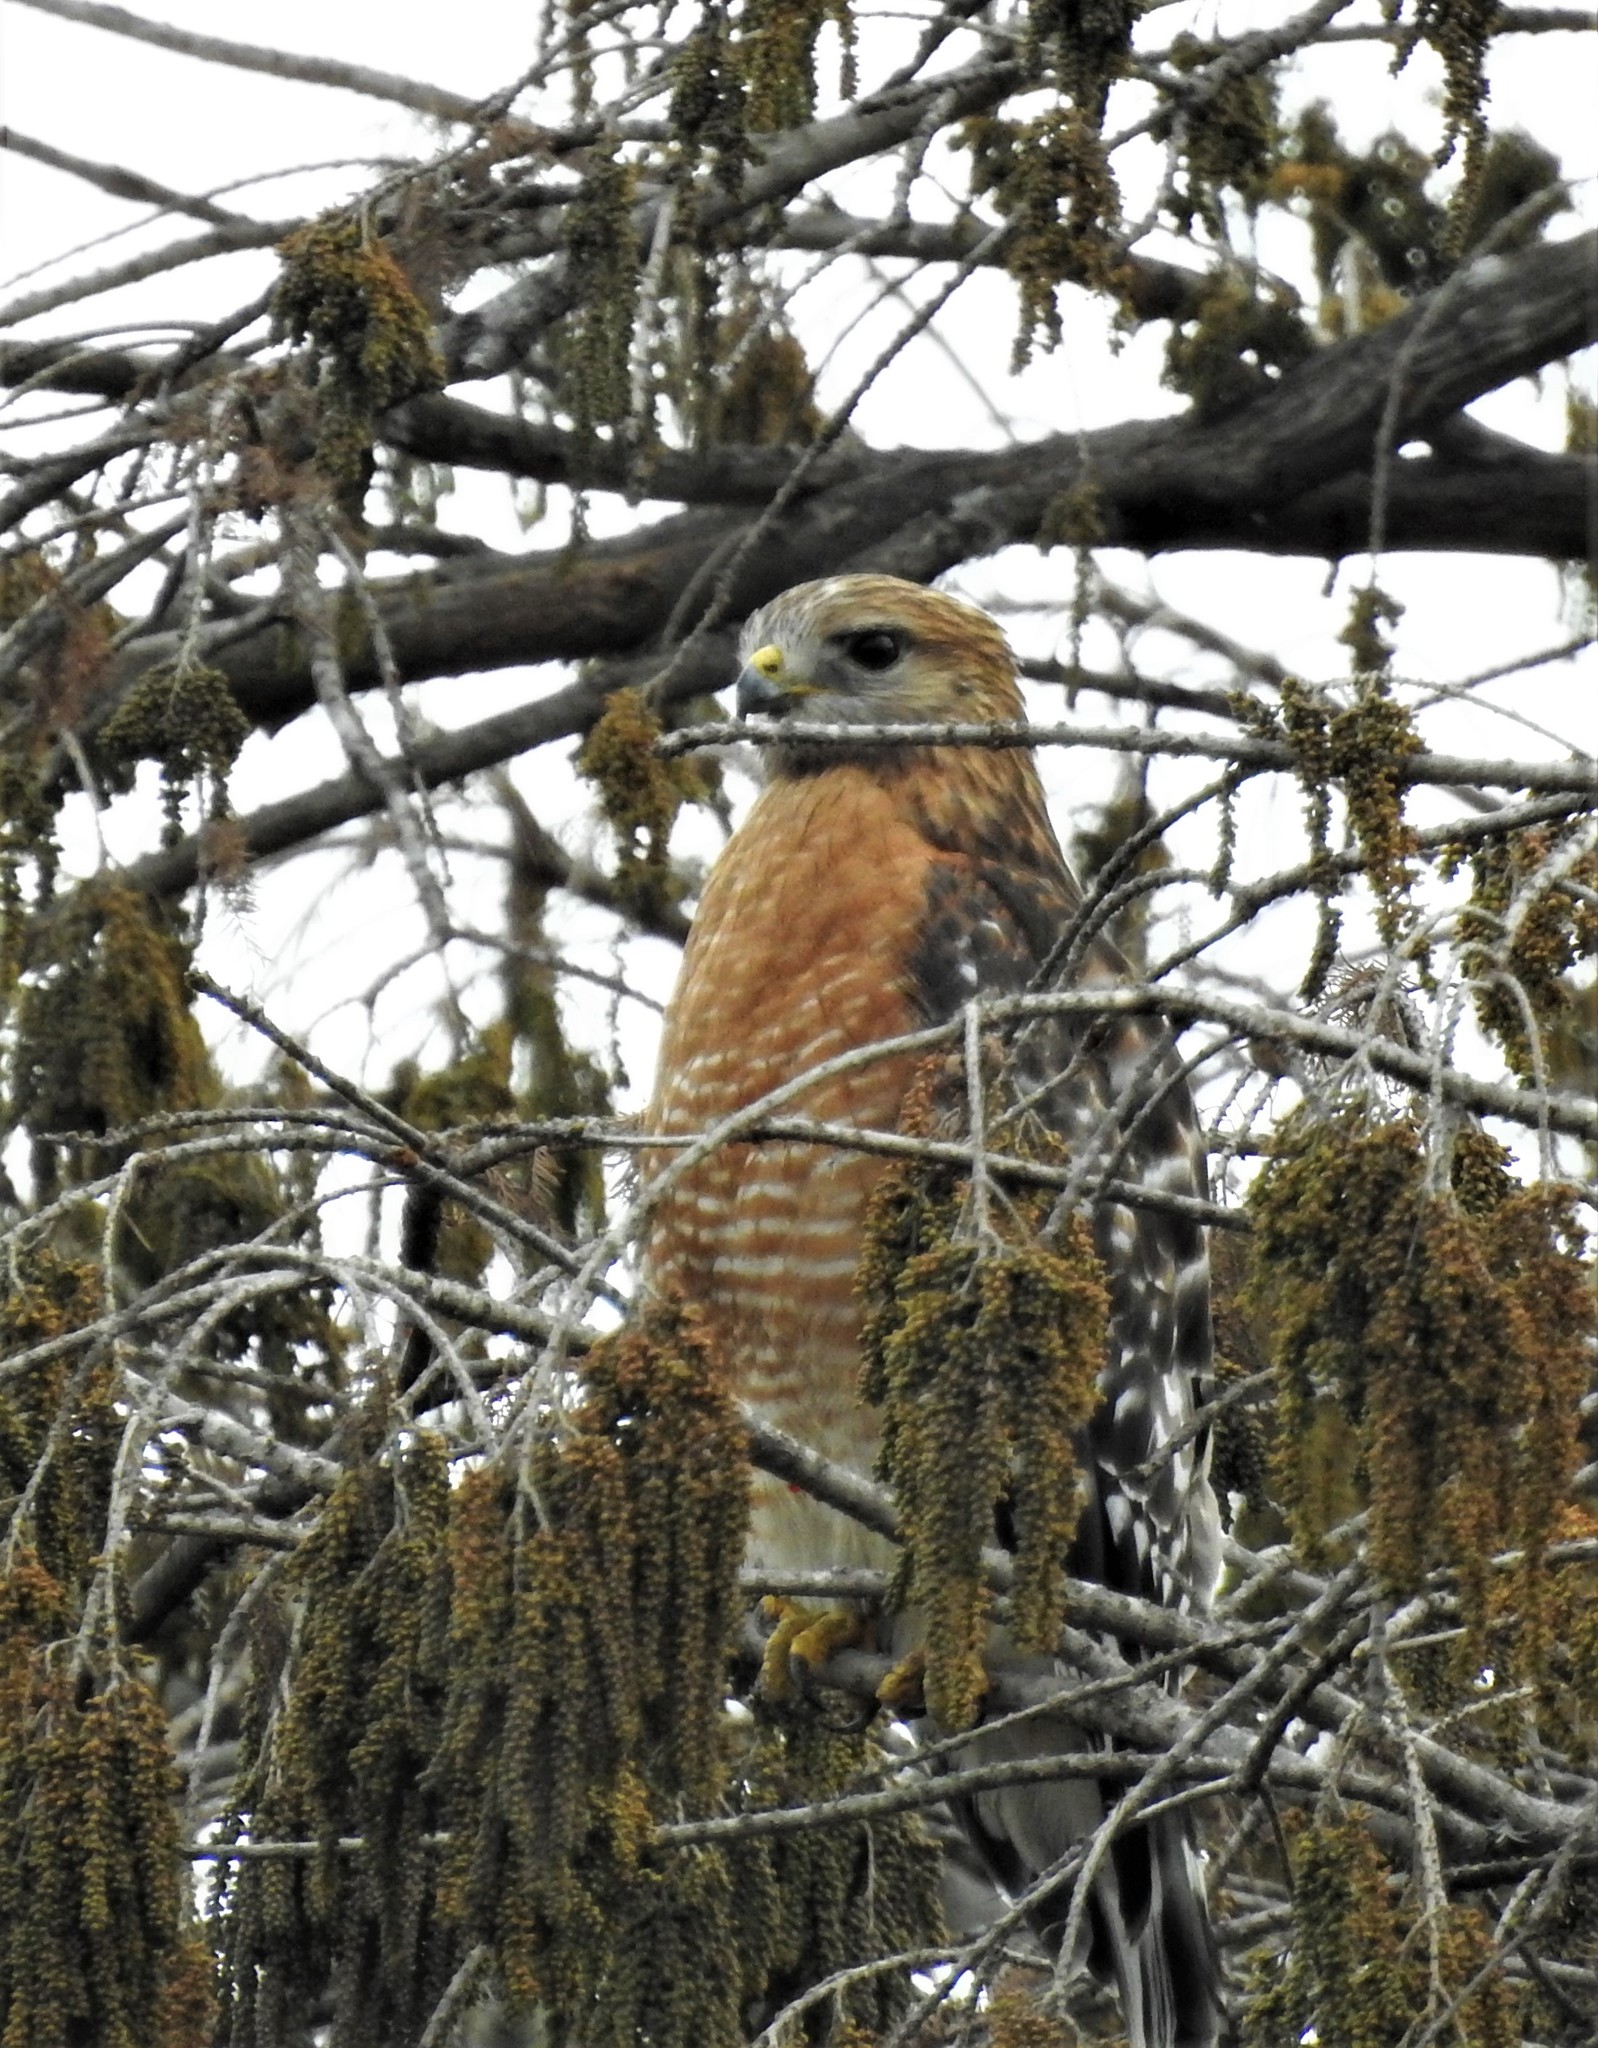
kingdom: Animalia
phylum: Chordata
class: Aves
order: Accipitriformes
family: Accipitridae
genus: Buteo
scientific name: Buteo lineatus
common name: Red-shouldered hawk
